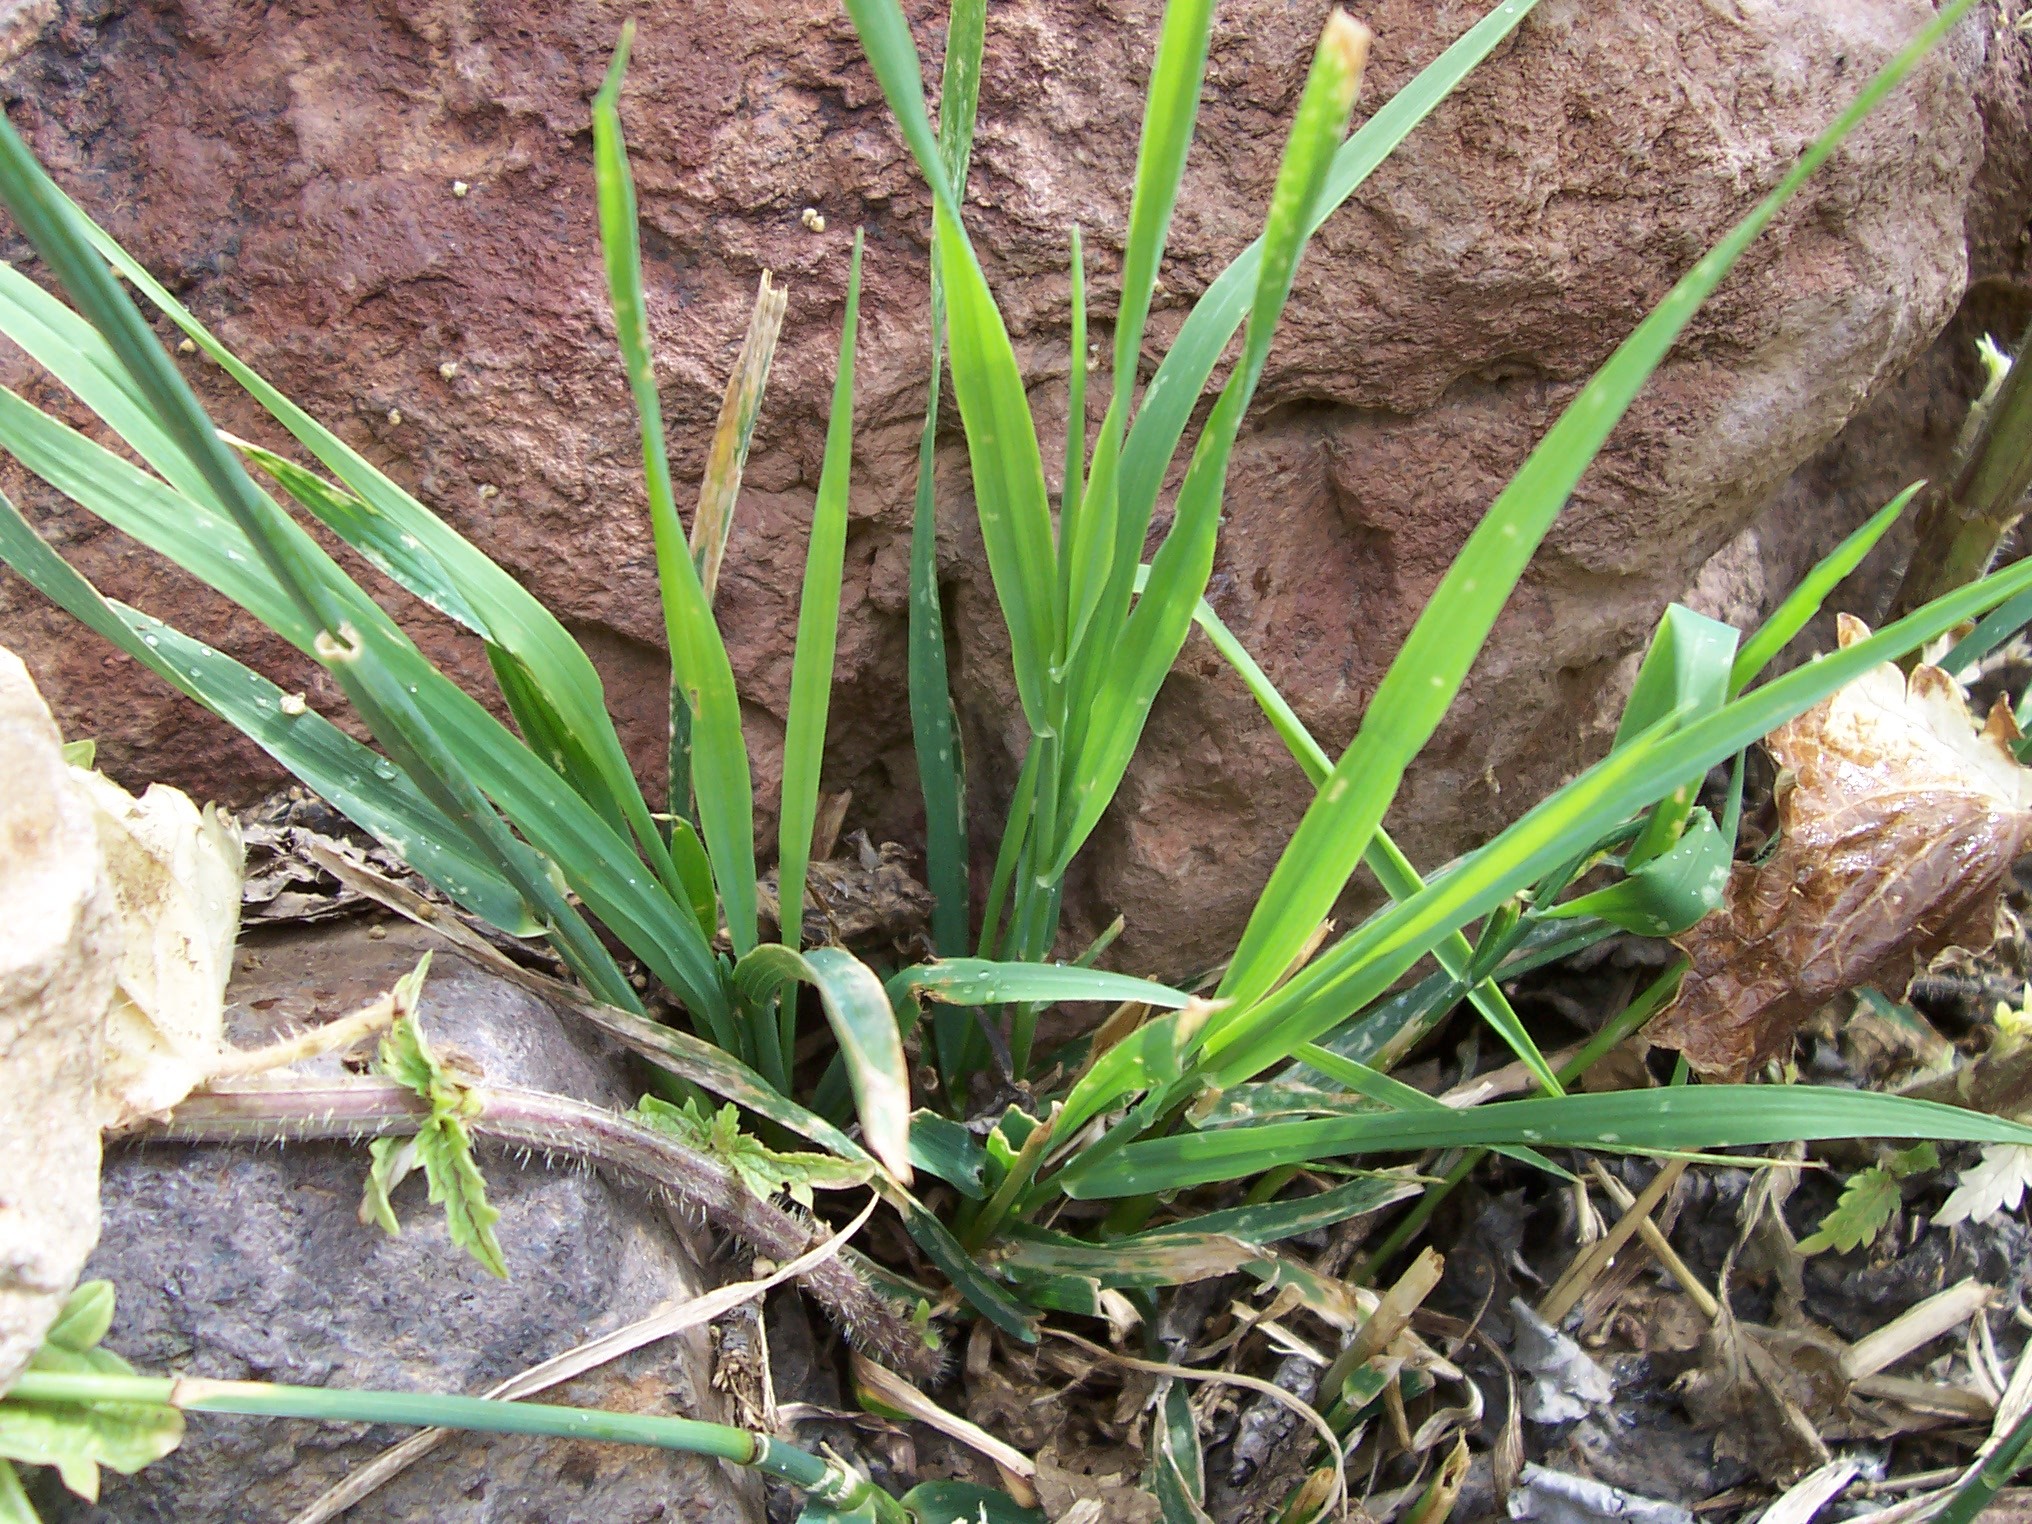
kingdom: Plantae
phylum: Tracheophyta
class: Liliopsida
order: Poales
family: Poaceae
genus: Phleum
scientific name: Phleum pratense
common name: Timothy grass
